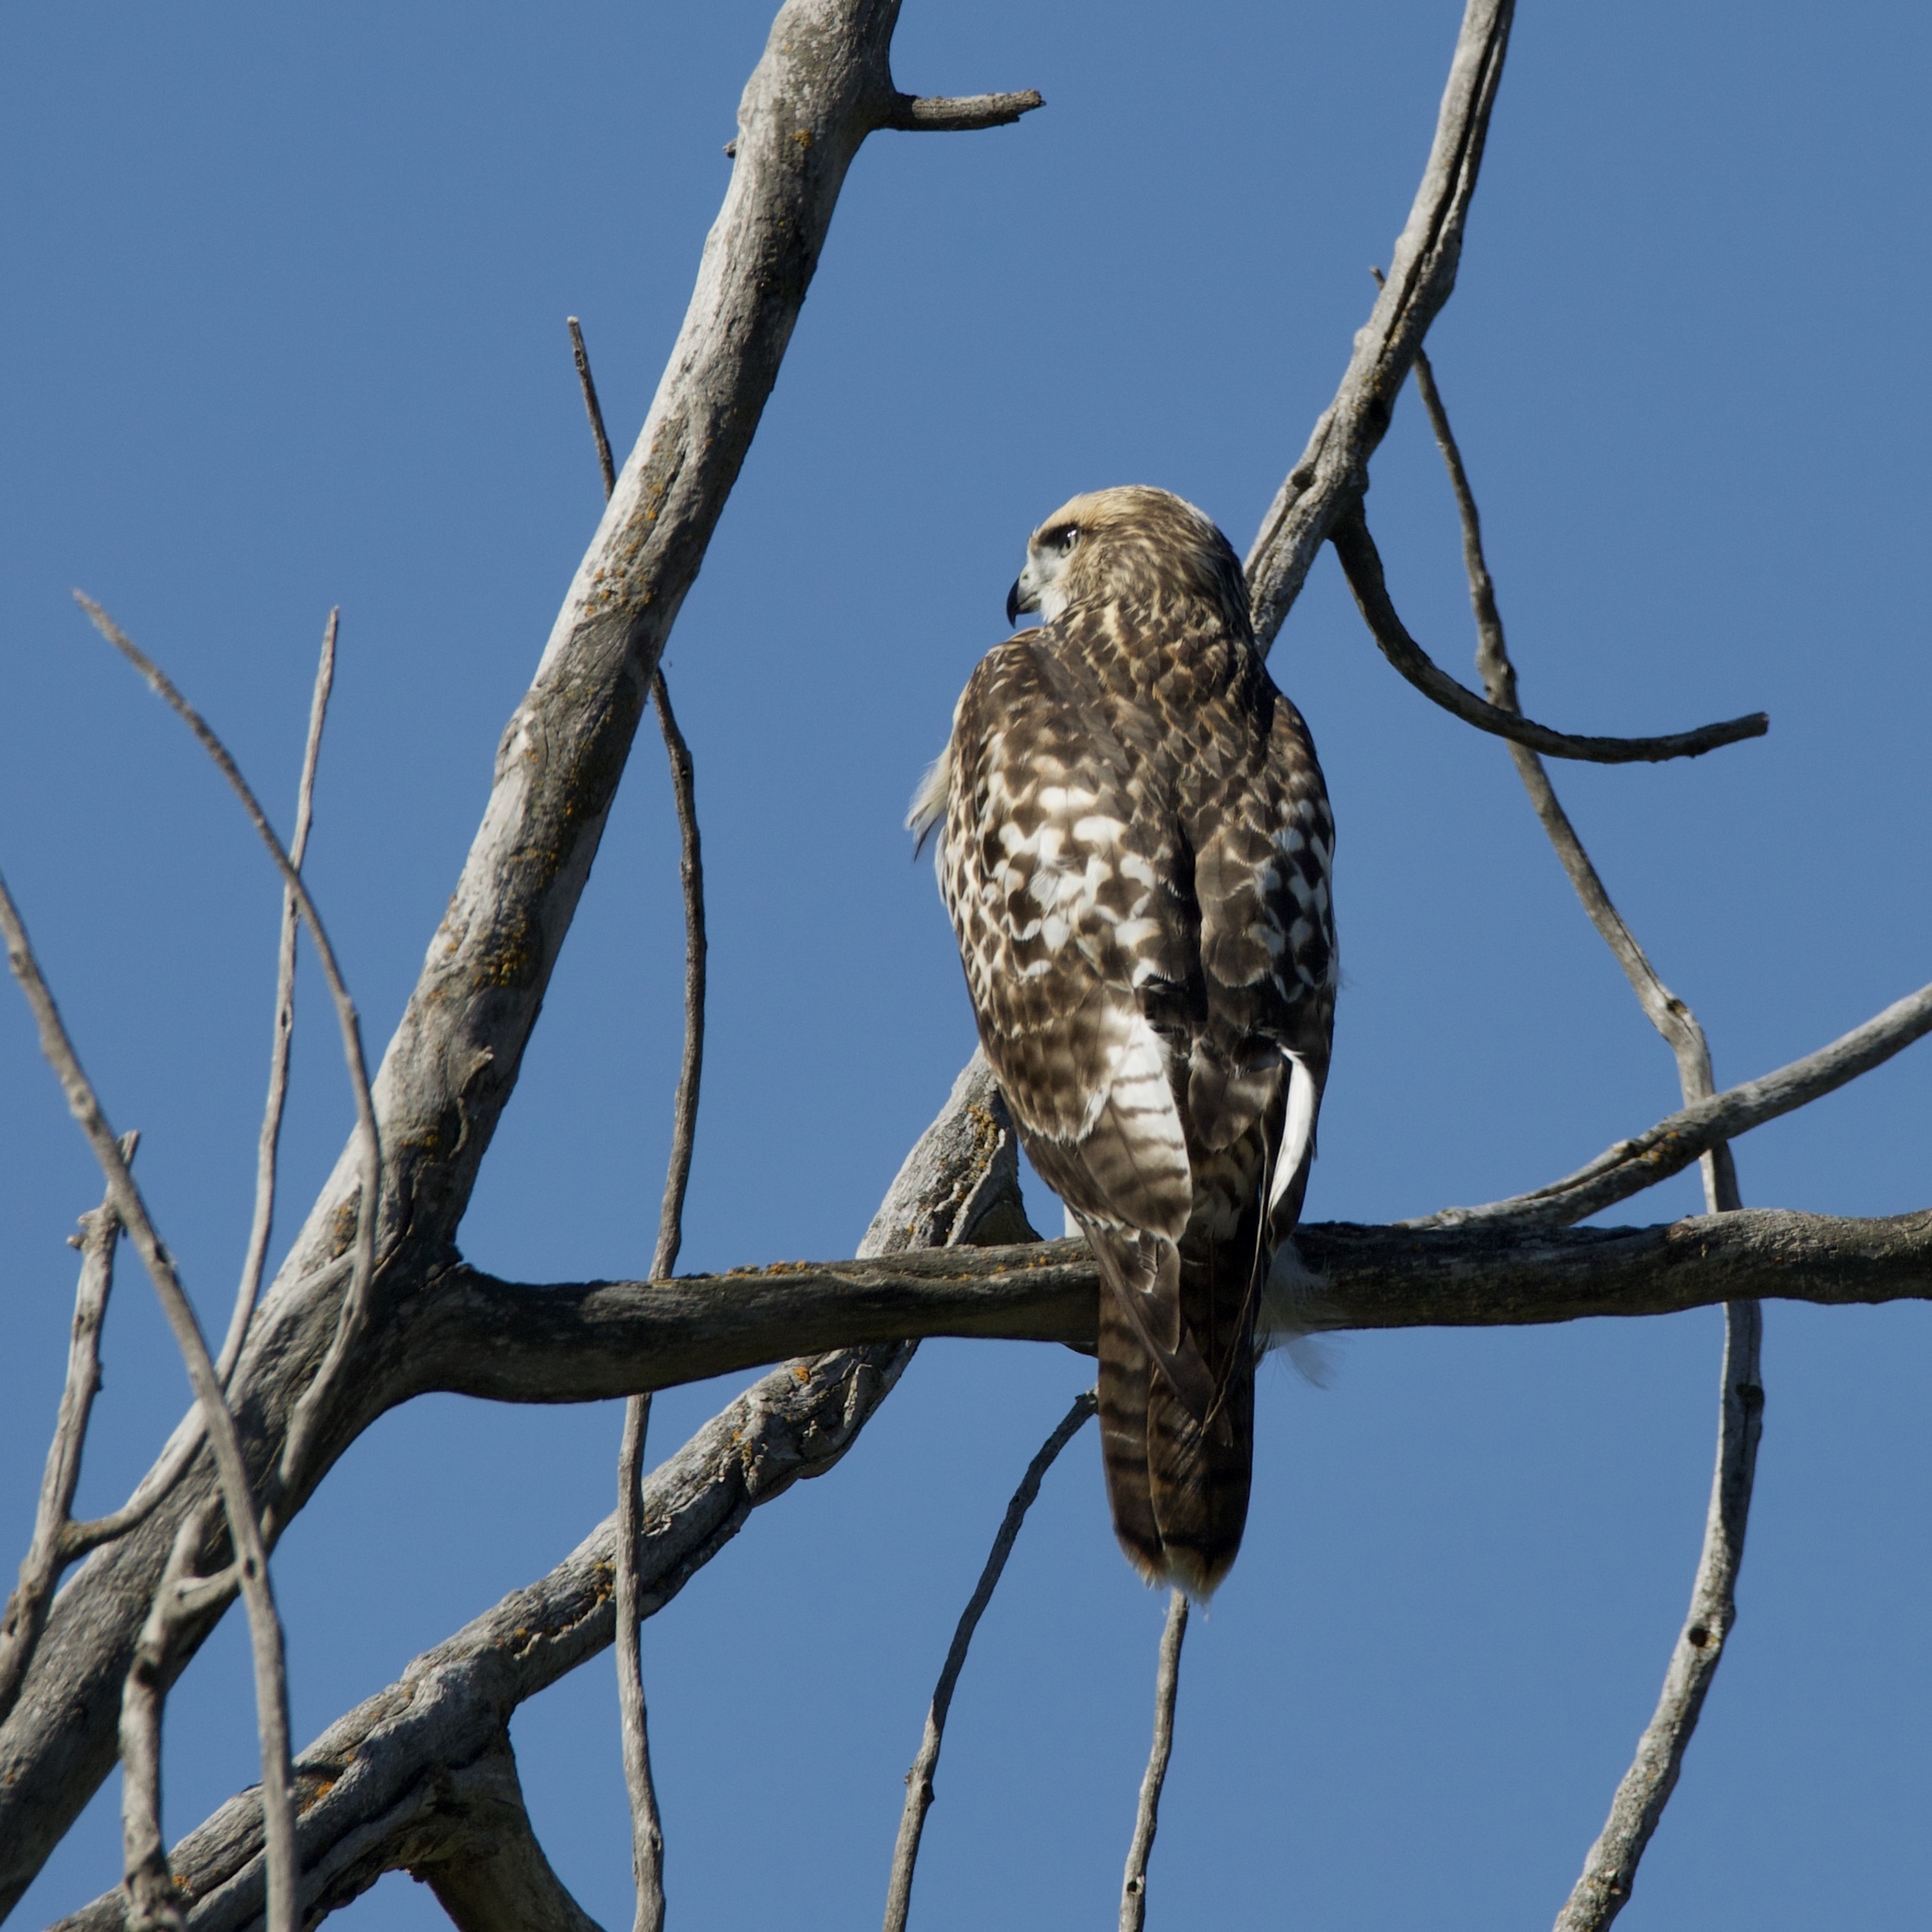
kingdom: Animalia
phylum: Chordata
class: Aves
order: Accipitriformes
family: Accipitridae
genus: Buteo
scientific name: Buteo jamaicensis
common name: Red-tailed hawk
